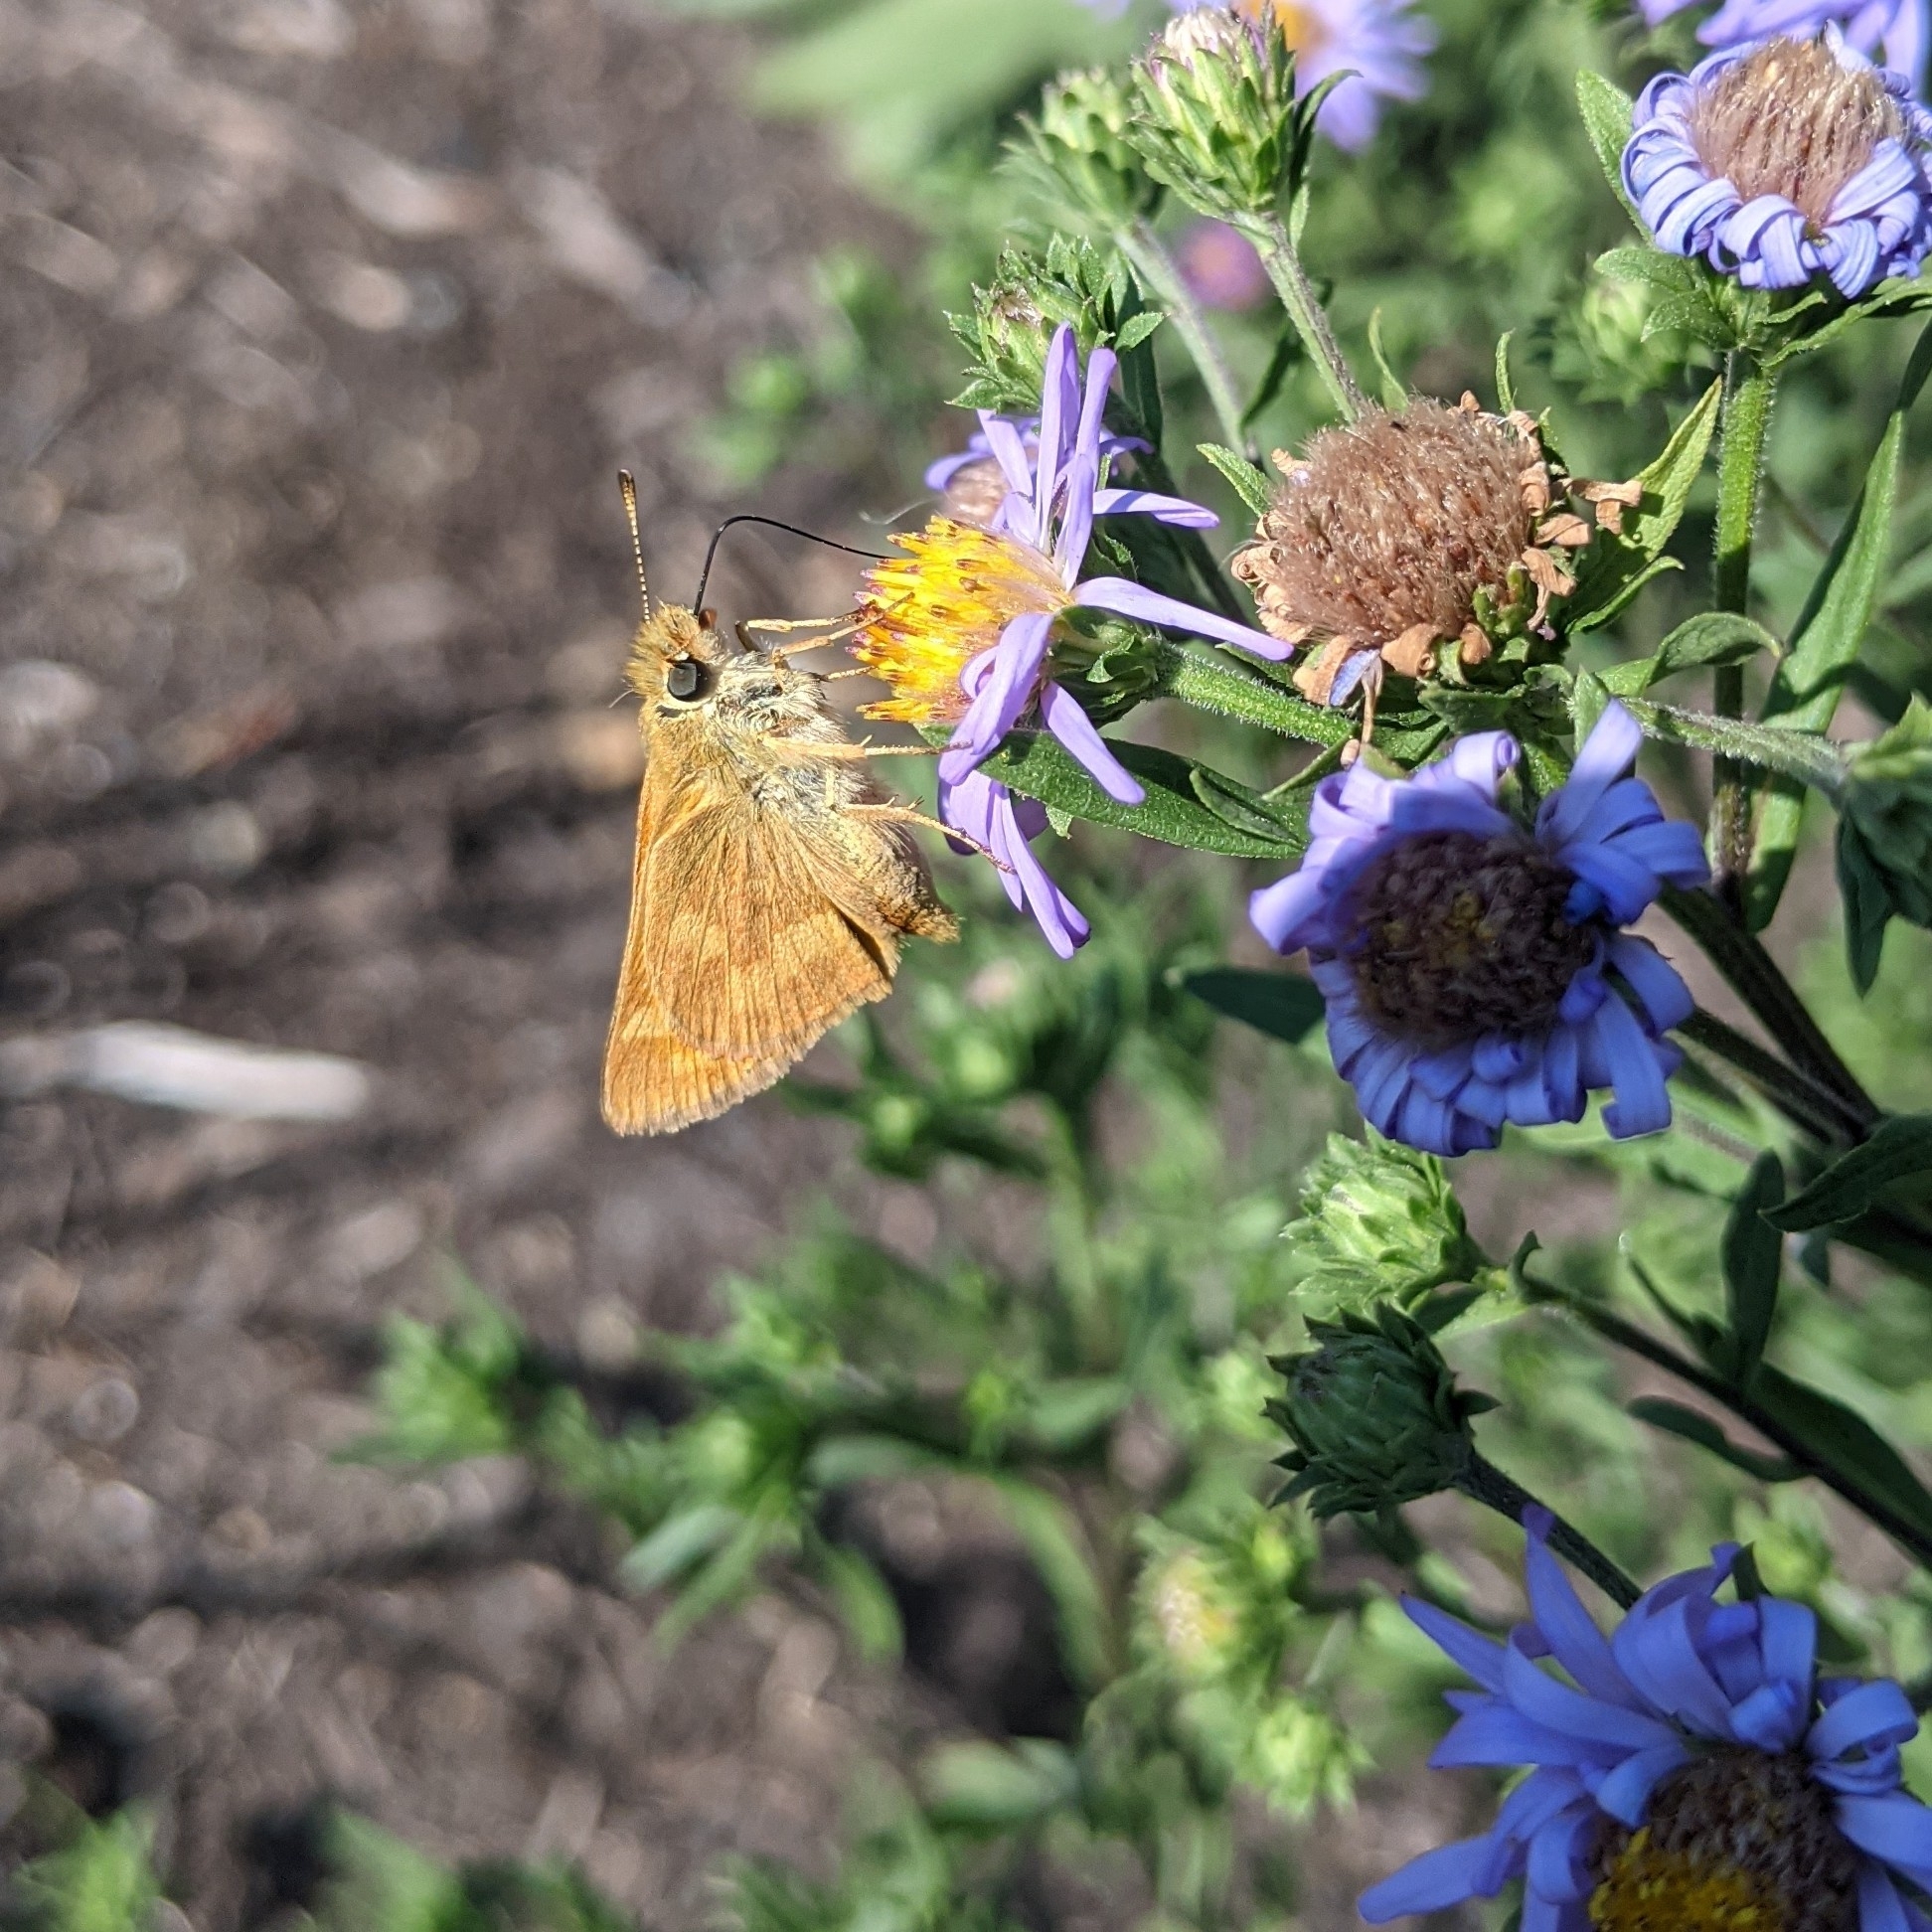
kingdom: Animalia
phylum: Arthropoda
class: Insecta
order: Lepidoptera
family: Hesperiidae
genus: Ochlodes
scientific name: Ochlodes sylvanoides
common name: Woodland skipper
